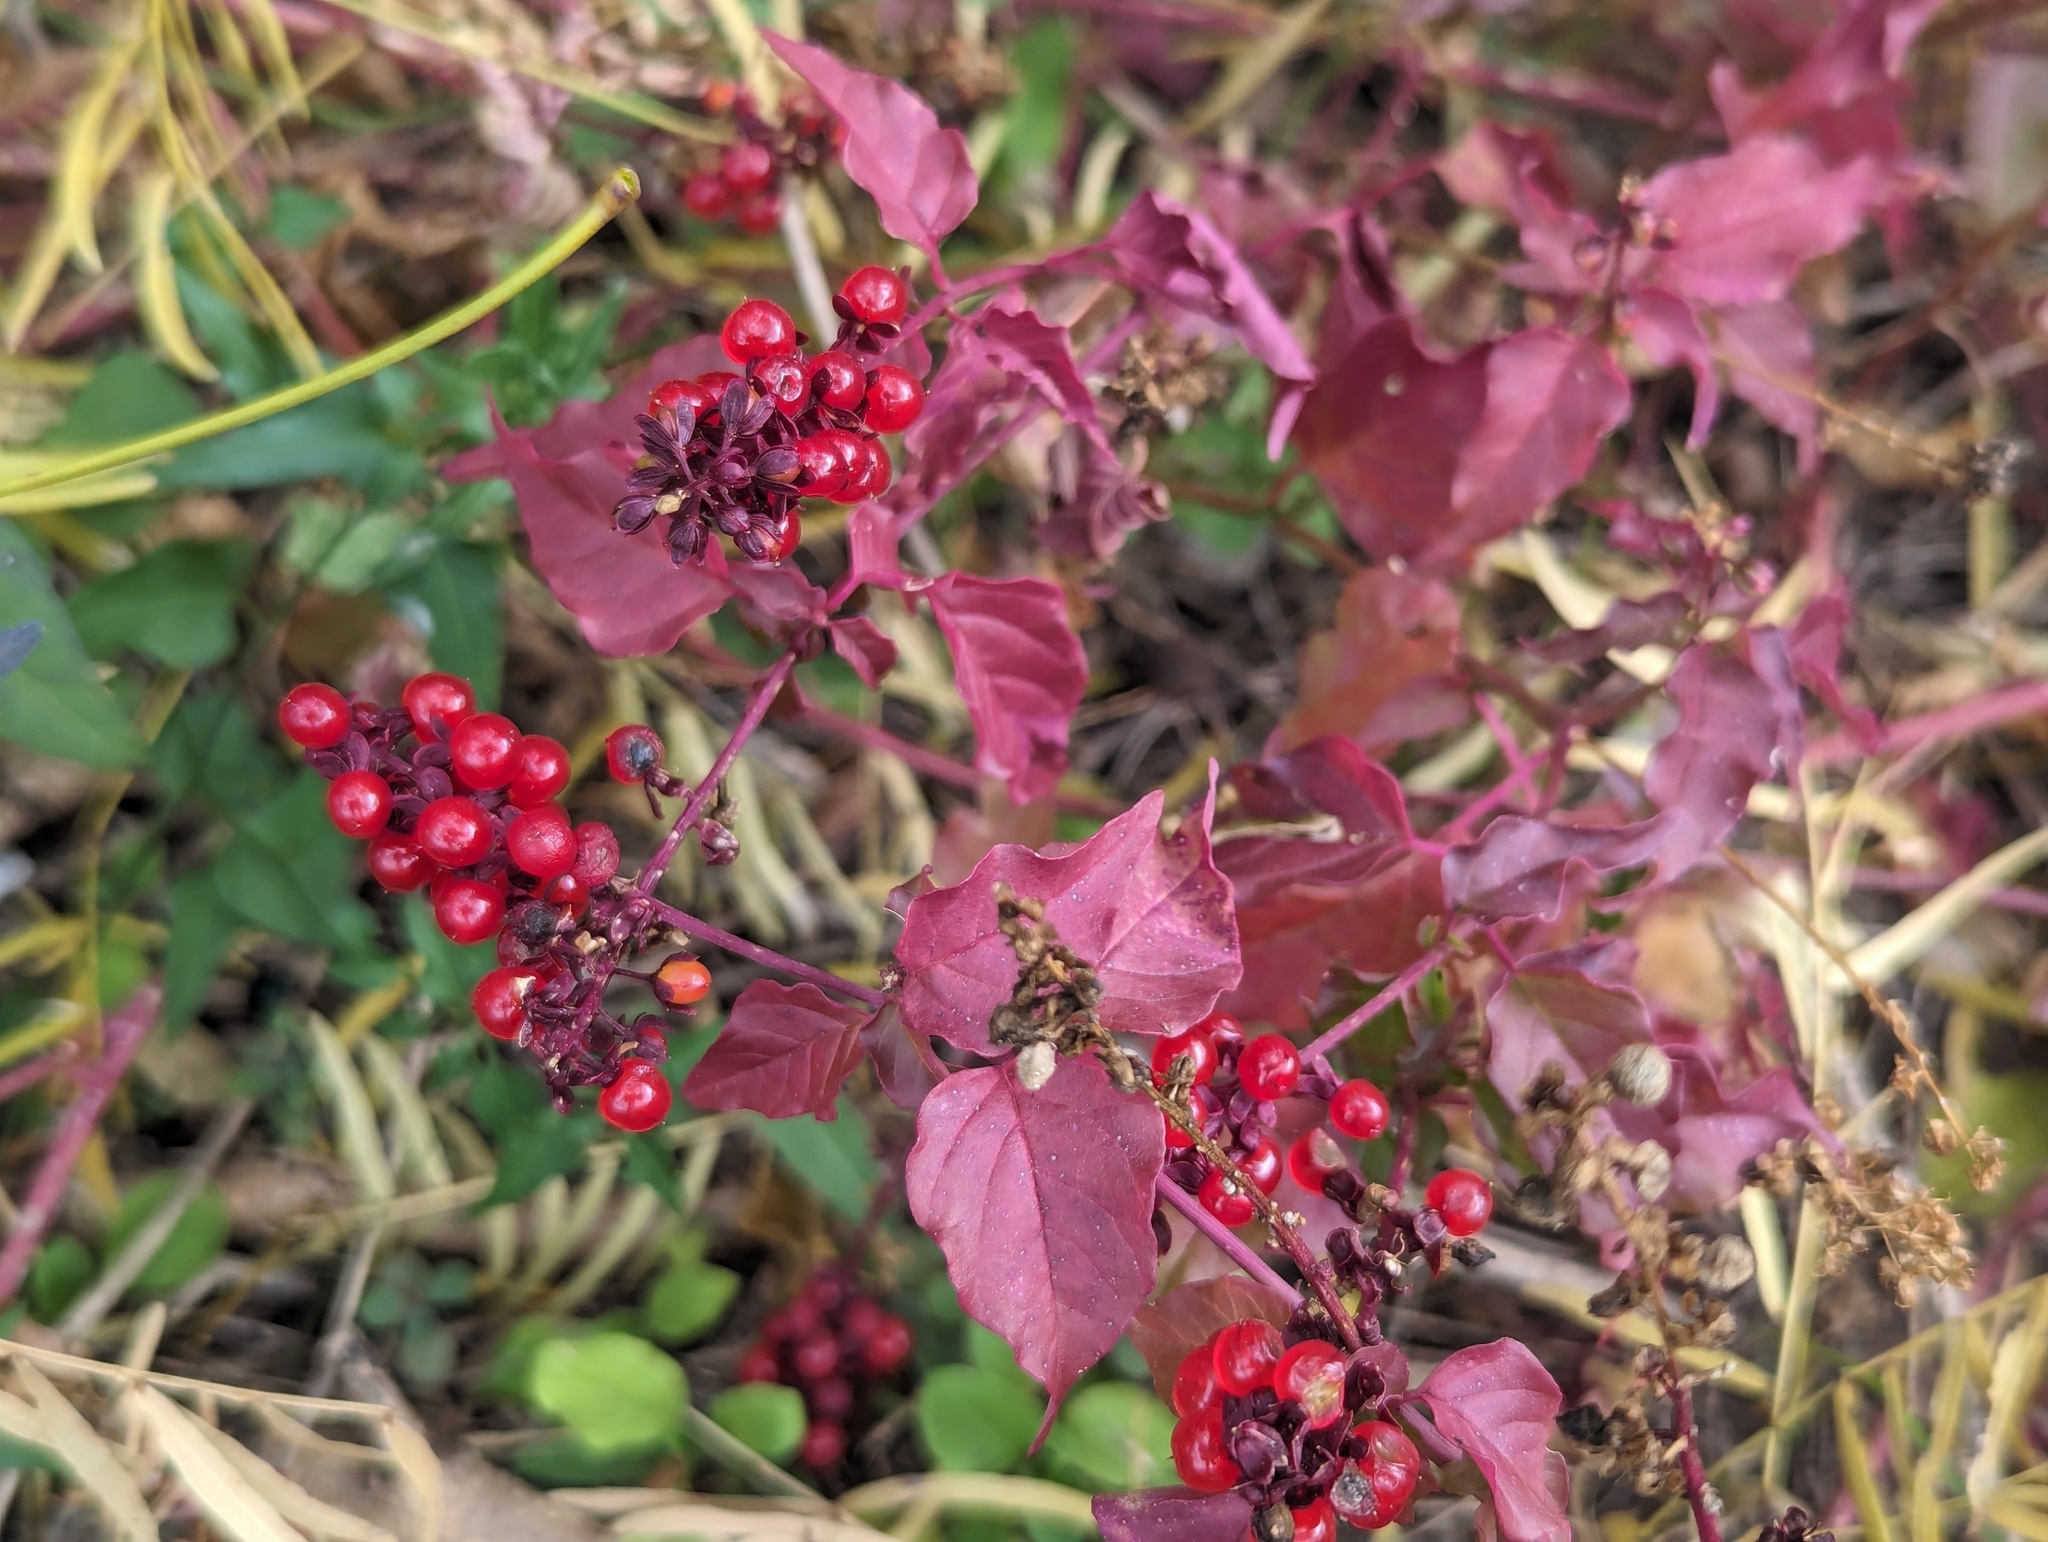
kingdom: Plantae
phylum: Tracheophyta
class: Magnoliopsida
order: Caryophyllales
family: Phytolaccaceae
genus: Rivina
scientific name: Rivina humilis
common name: Rougeplant
